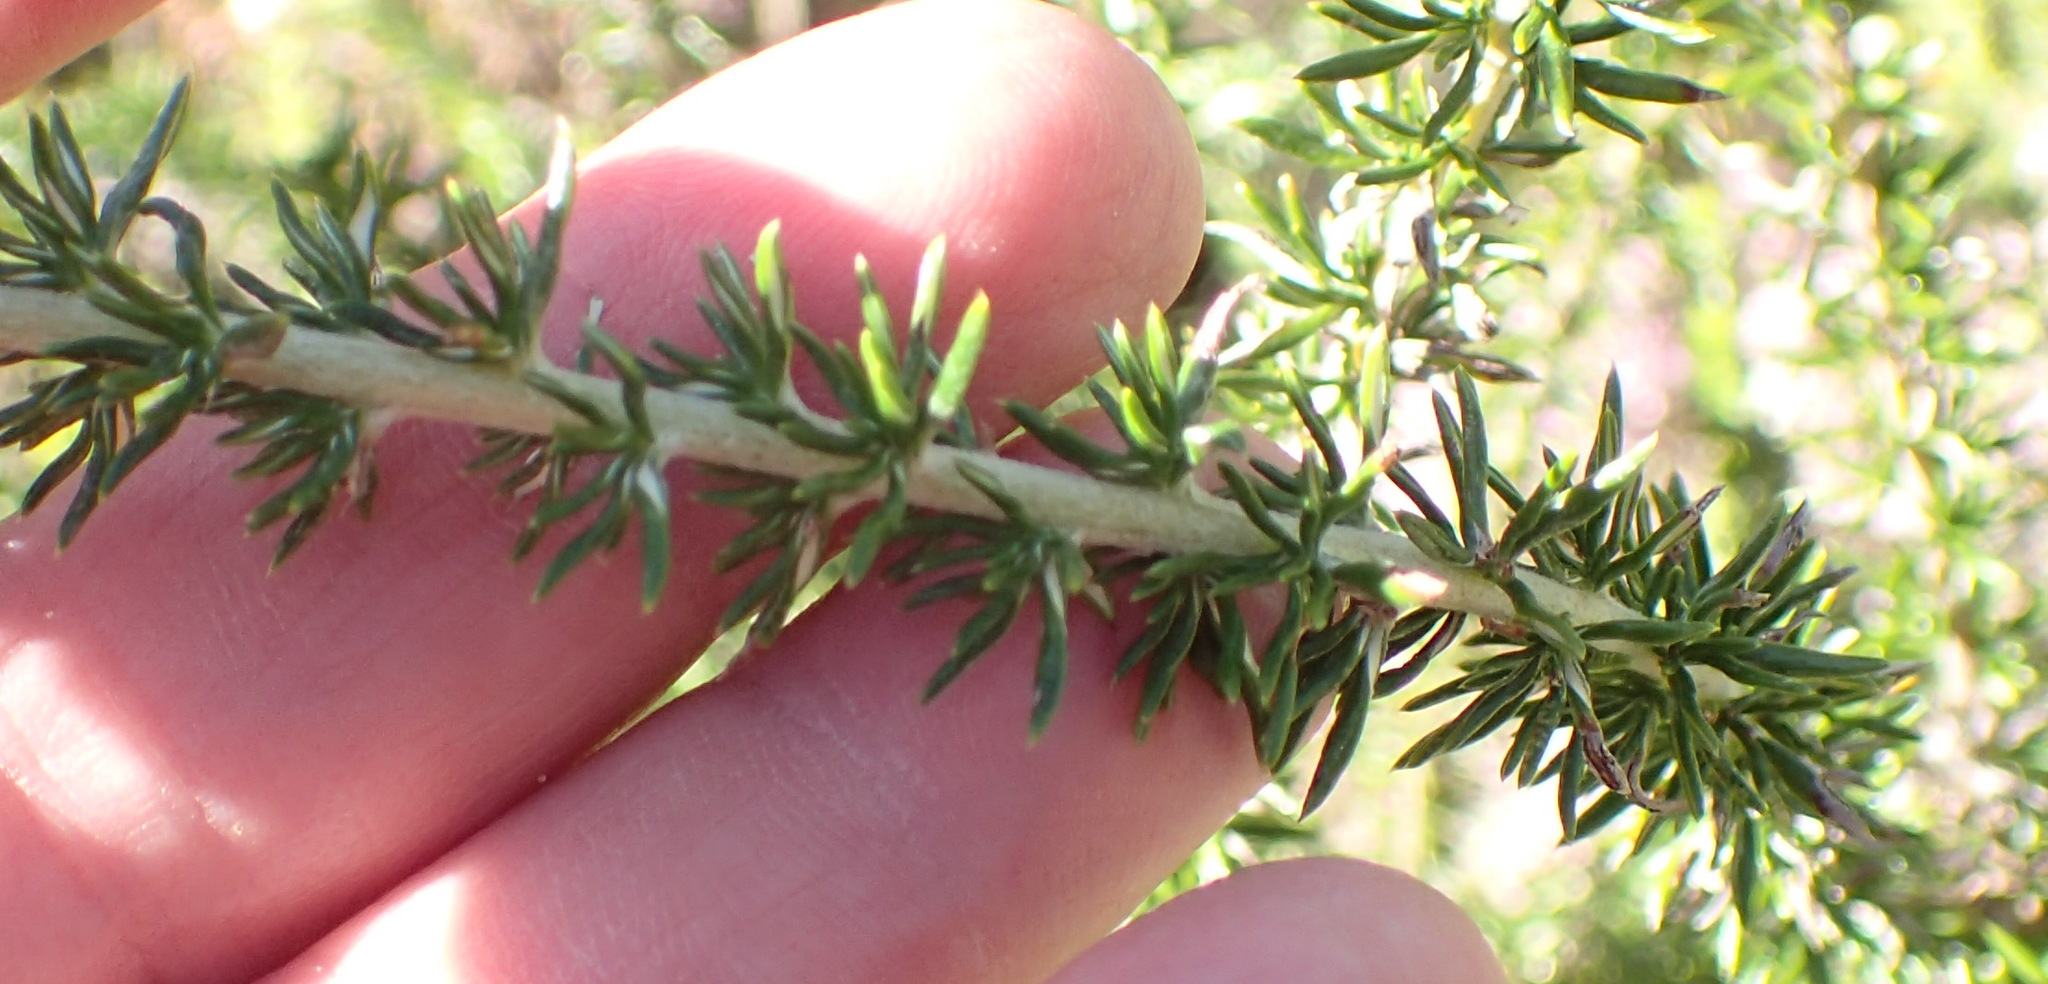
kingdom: Plantae
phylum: Tracheophyta
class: Magnoliopsida
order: Asterales
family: Asteraceae
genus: Metalasia
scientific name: Metalasia densa
